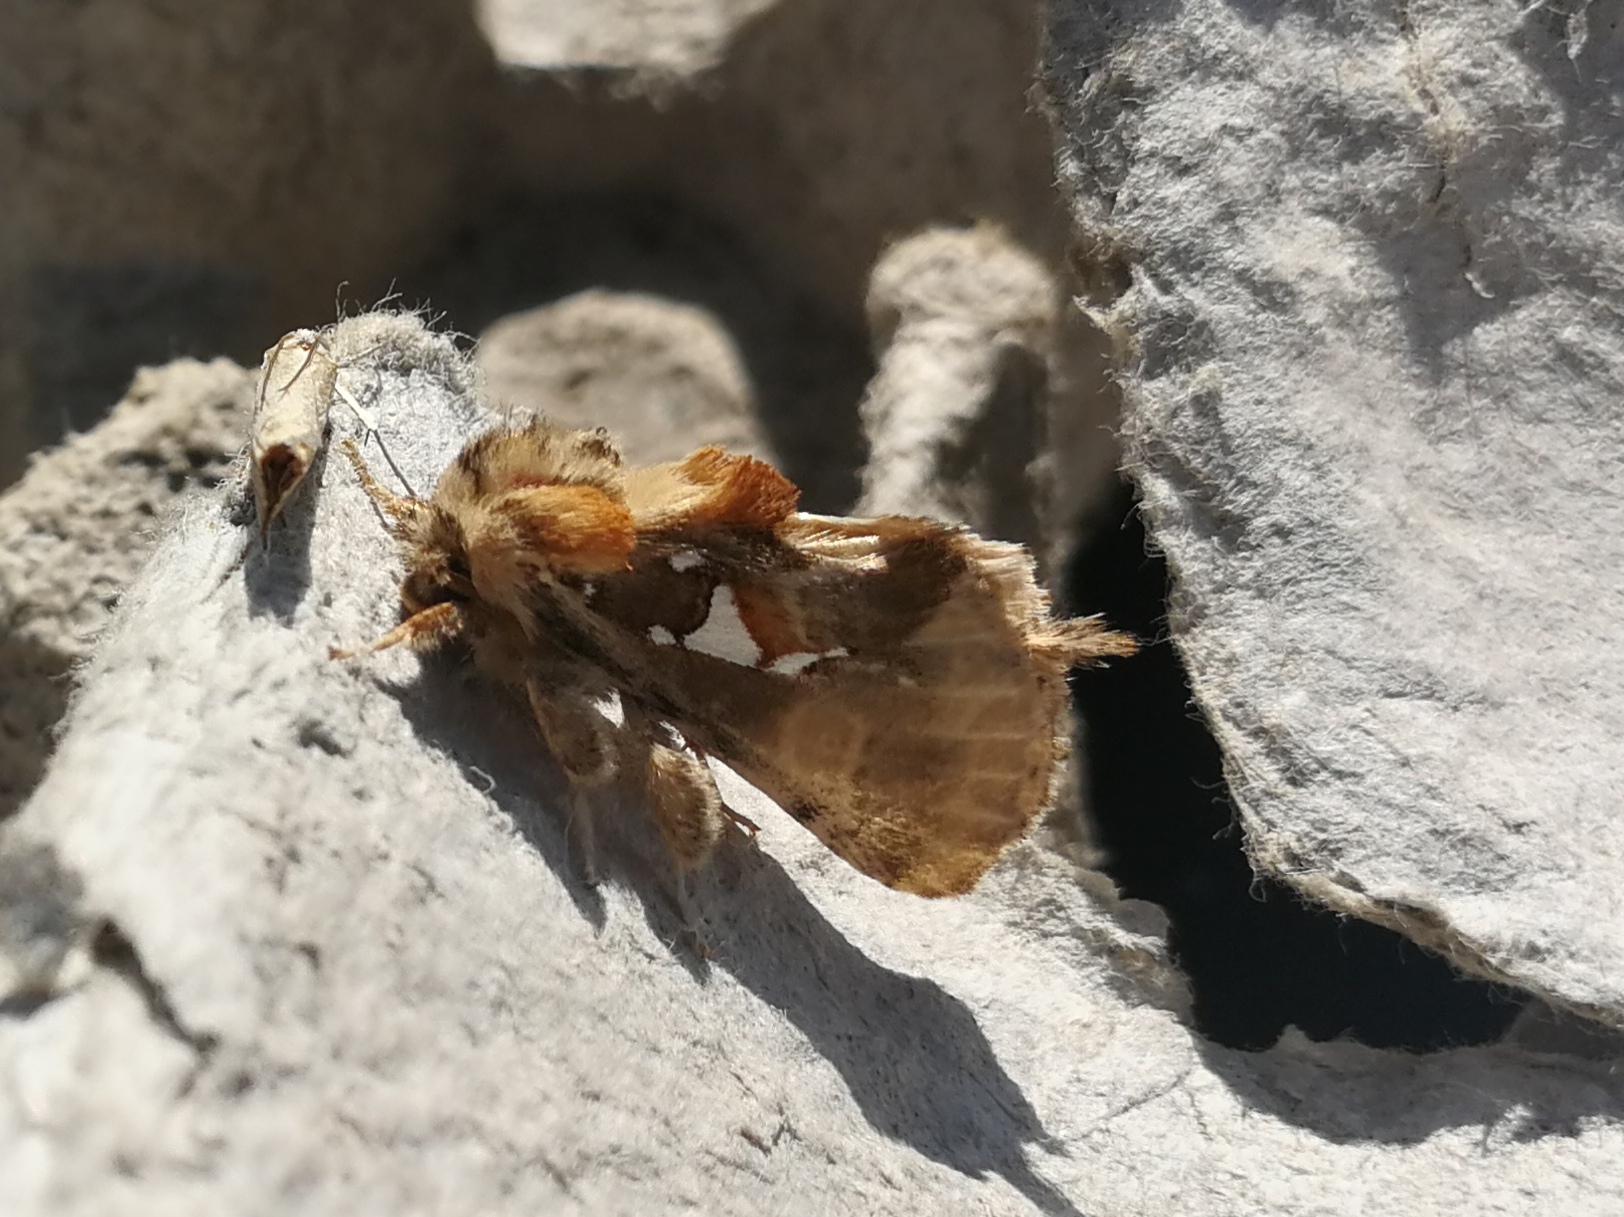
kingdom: Animalia
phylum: Arthropoda
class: Insecta
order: Lepidoptera
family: Notodontidae
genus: Spatalia
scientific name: Spatalia argentina
